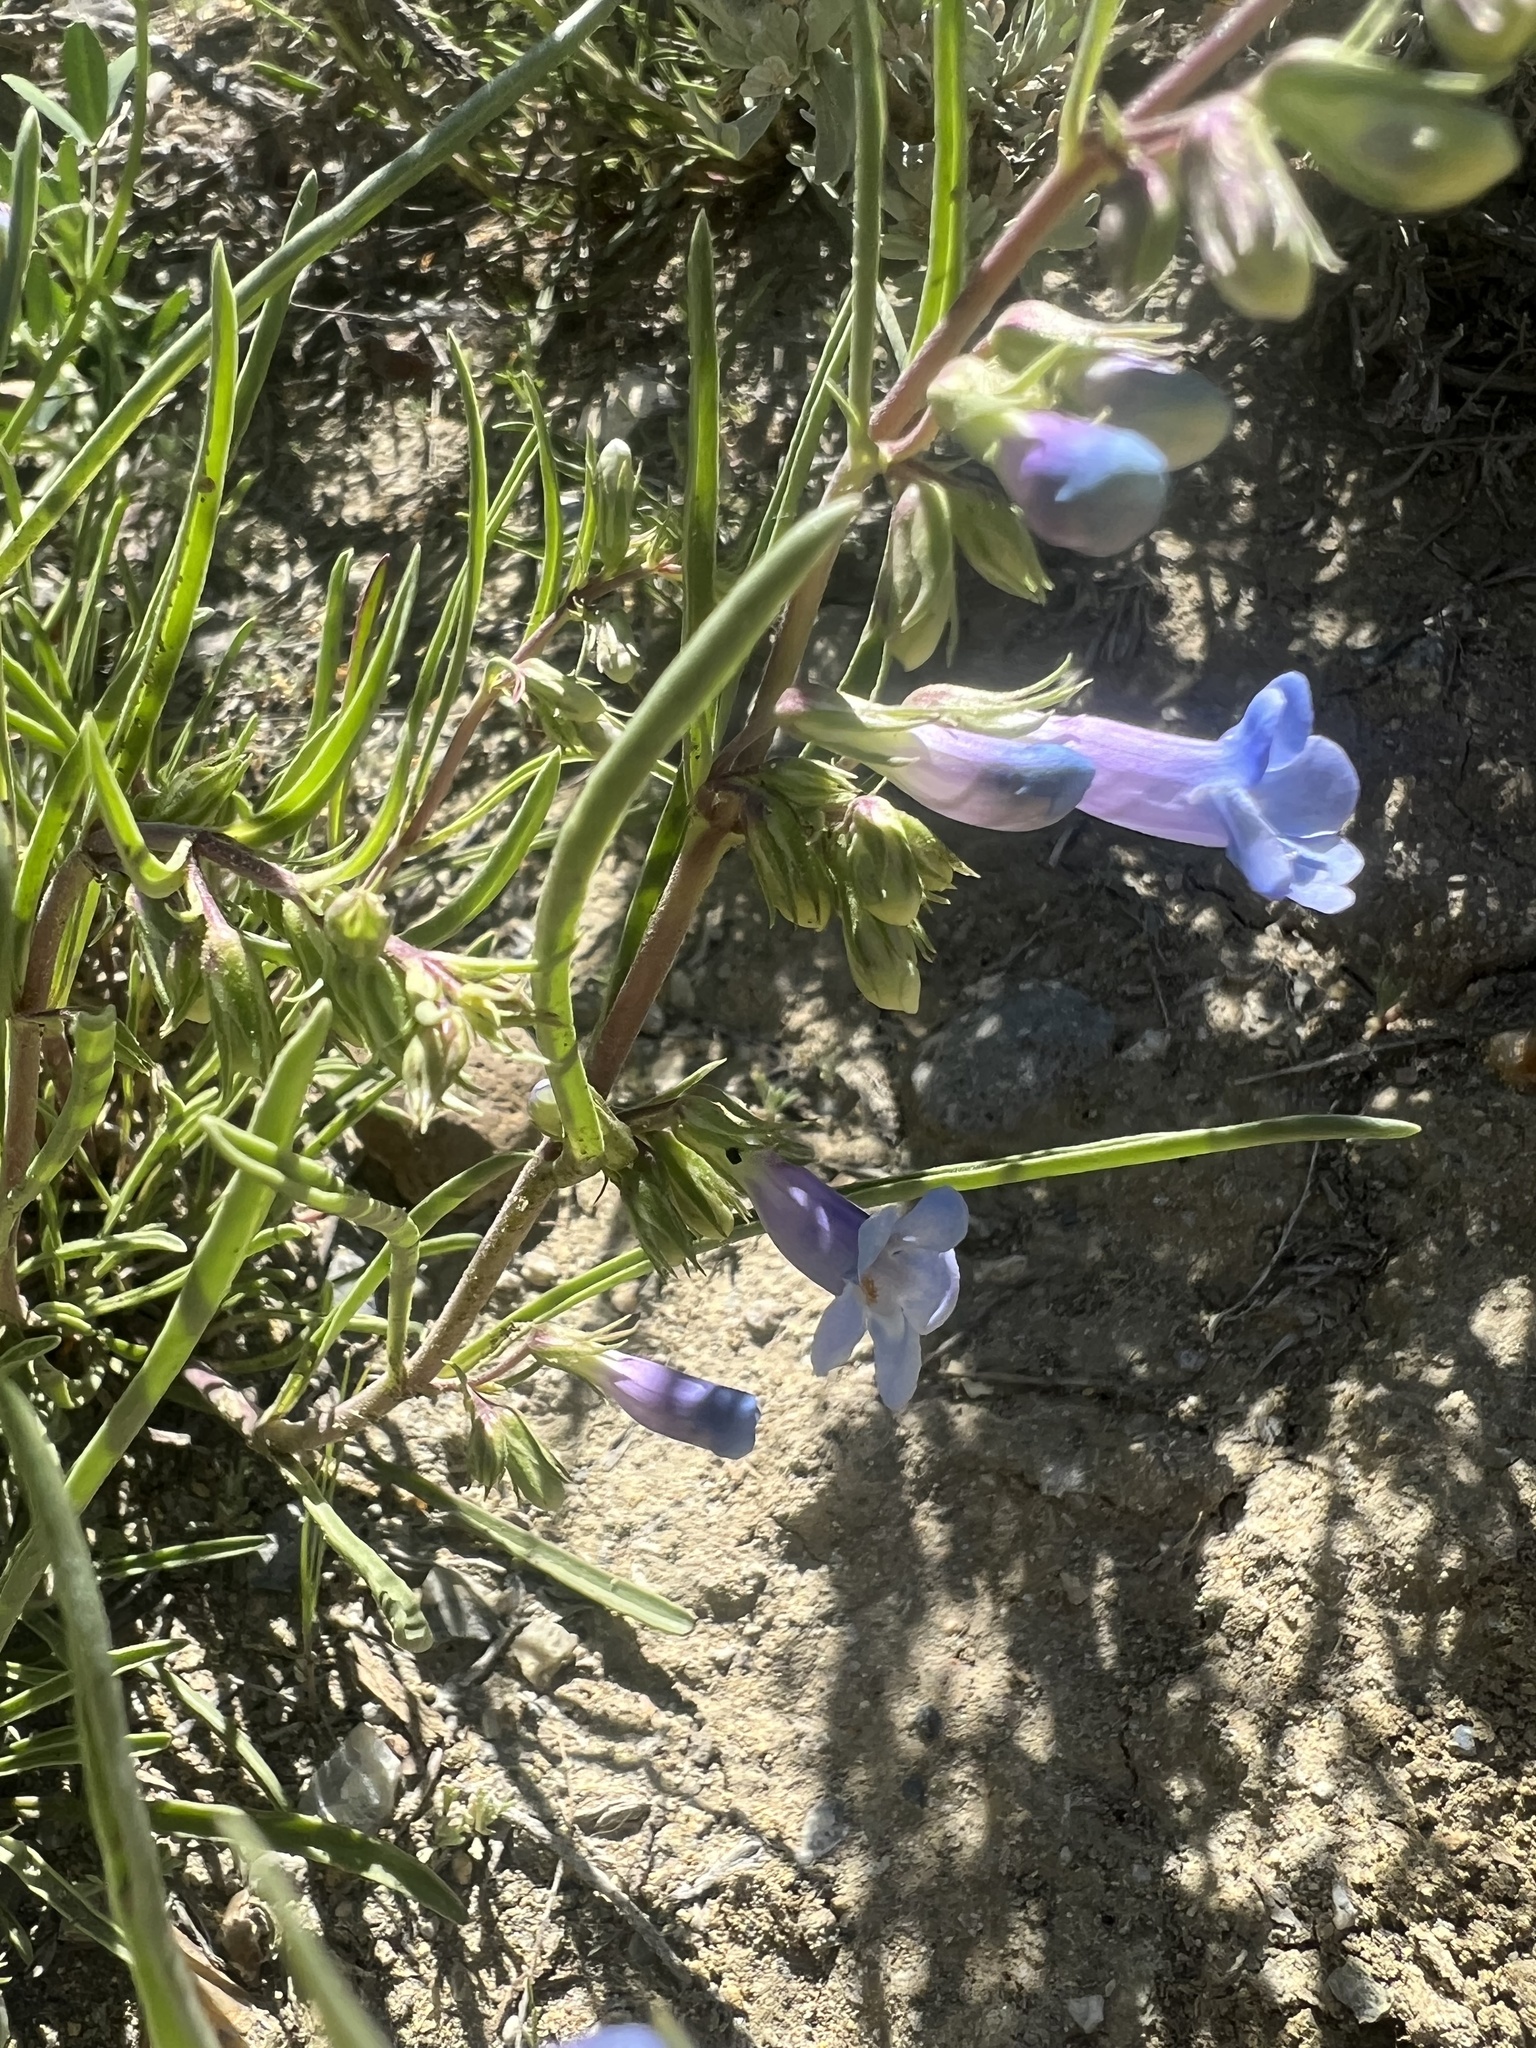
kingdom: Plantae
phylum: Tracheophyta
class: Magnoliopsida
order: Lamiales
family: Plantaginaceae
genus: Penstemon
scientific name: Penstemon penlandii
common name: Penland's beardtongue
